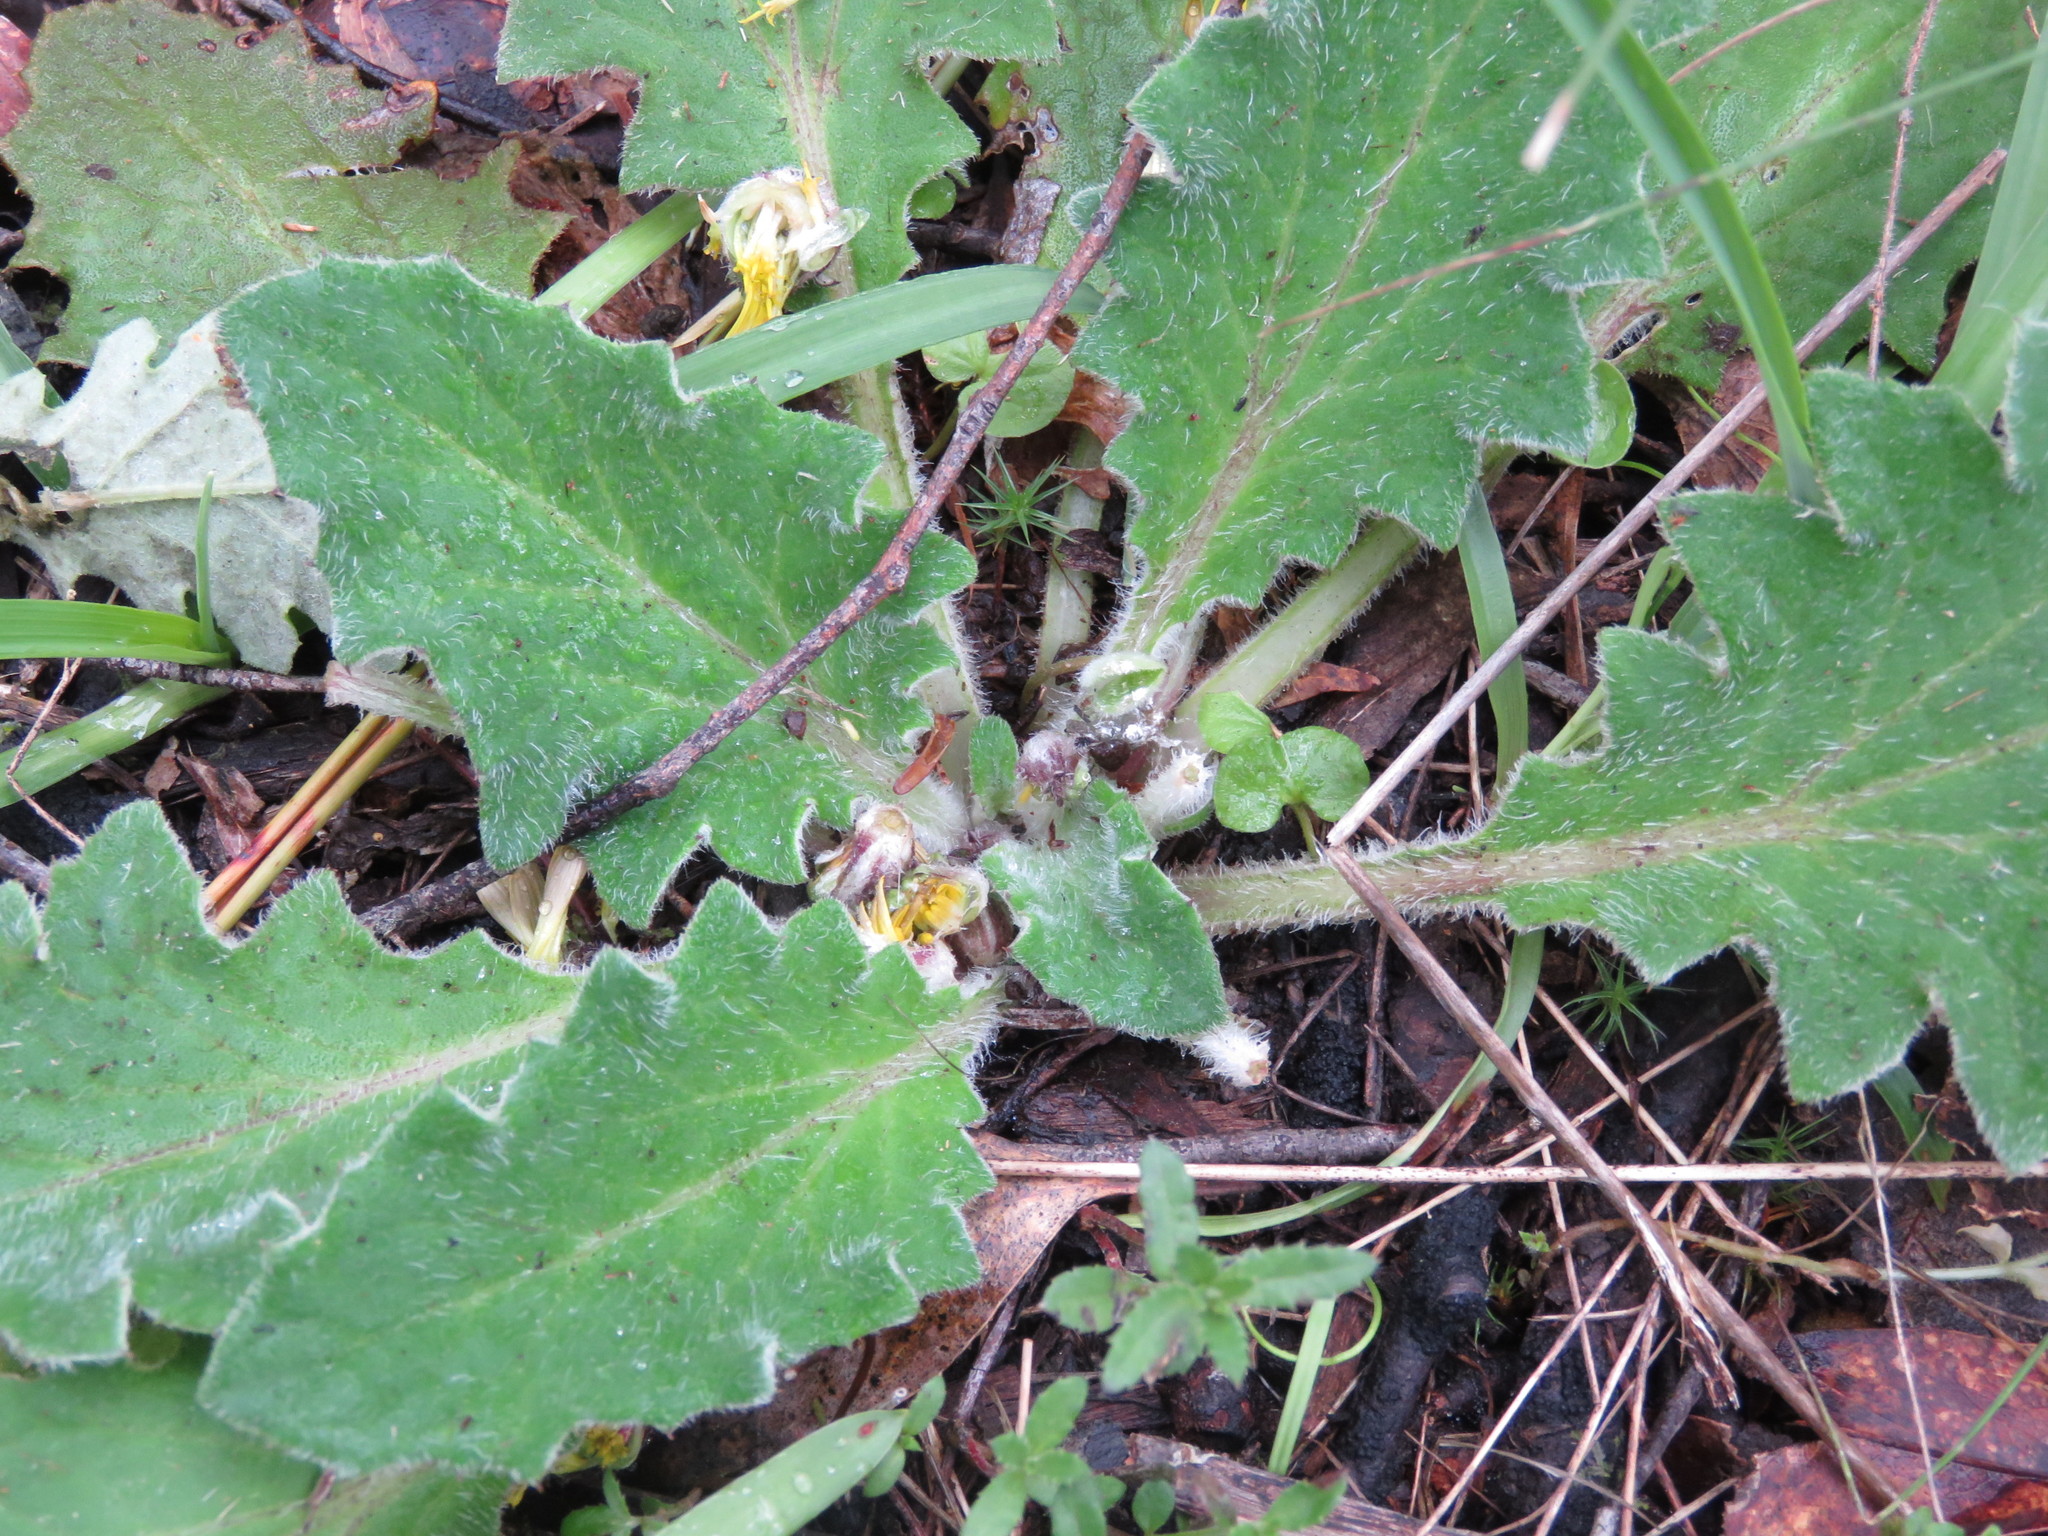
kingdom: Plantae
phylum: Tracheophyta
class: Magnoliopsida
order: Asterales
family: Asteraceae
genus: Cymbonotus
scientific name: Cymbonotus preissianus
